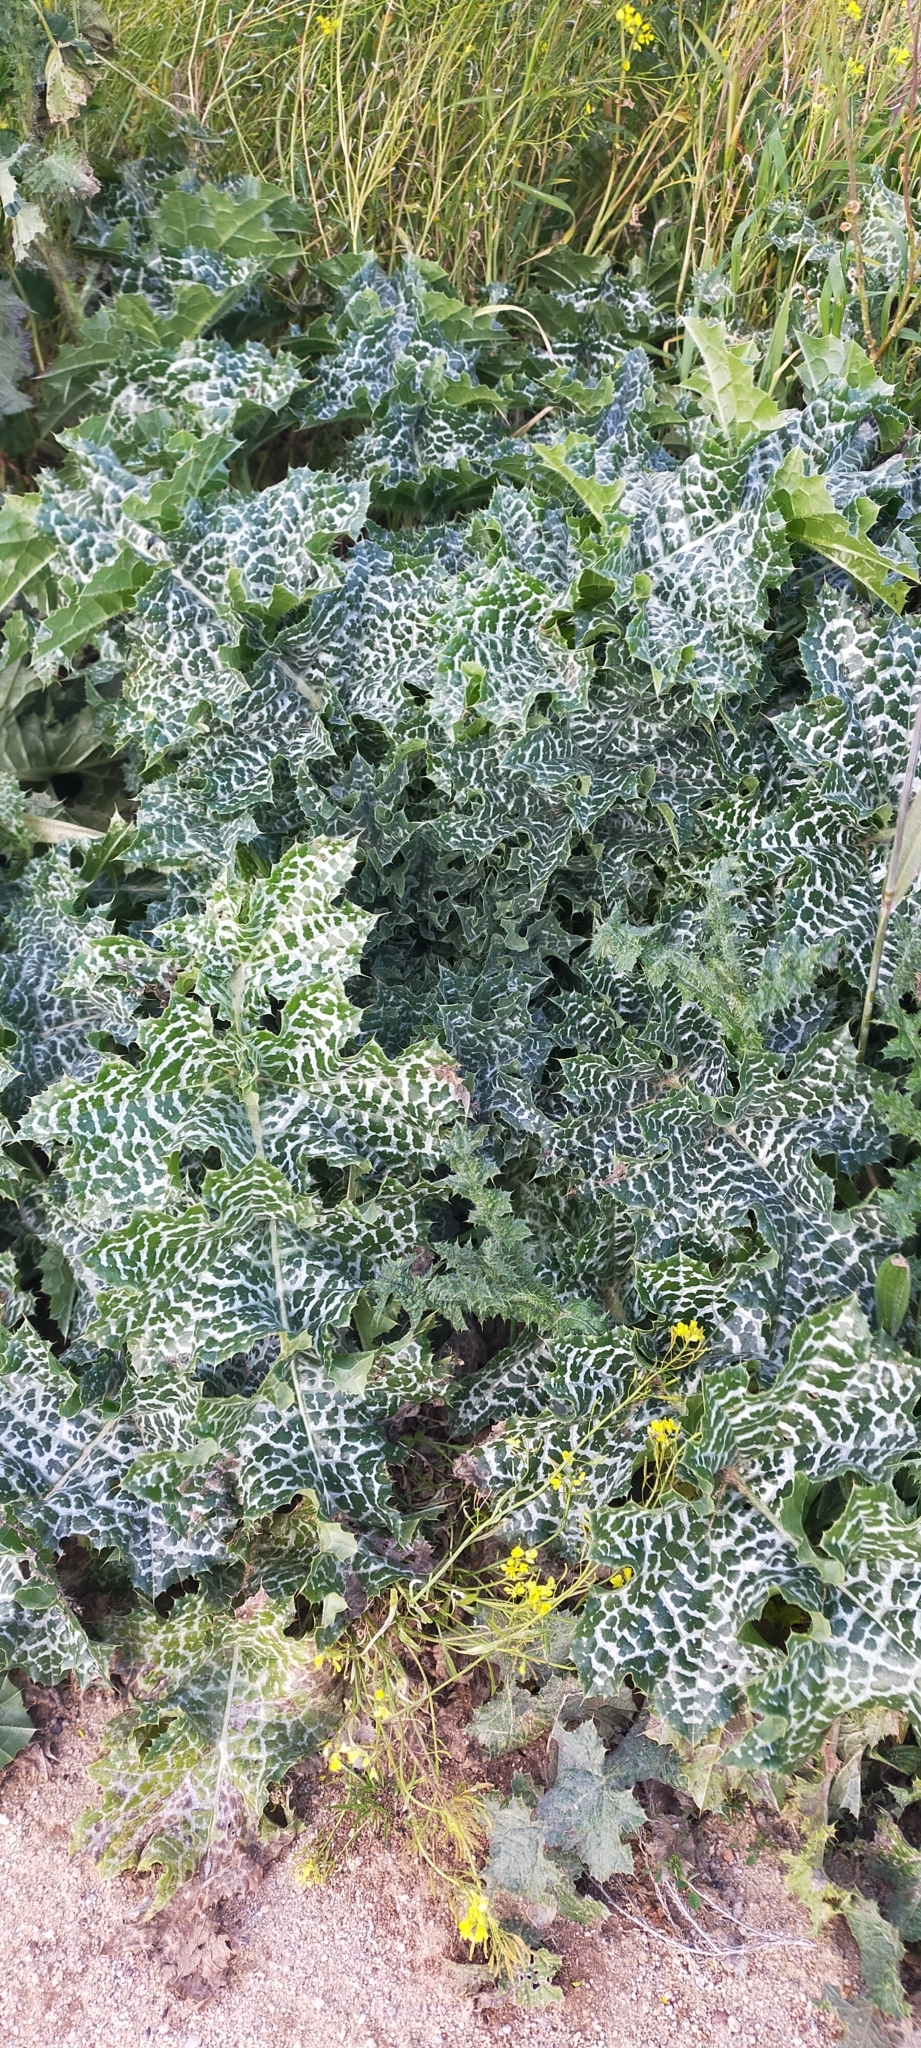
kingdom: Plantae
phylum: Tracheophyta
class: Magnoliopsida
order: Asterales
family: Asteraceae
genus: Silybum
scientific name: Silybum marianum
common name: Milk thistle
